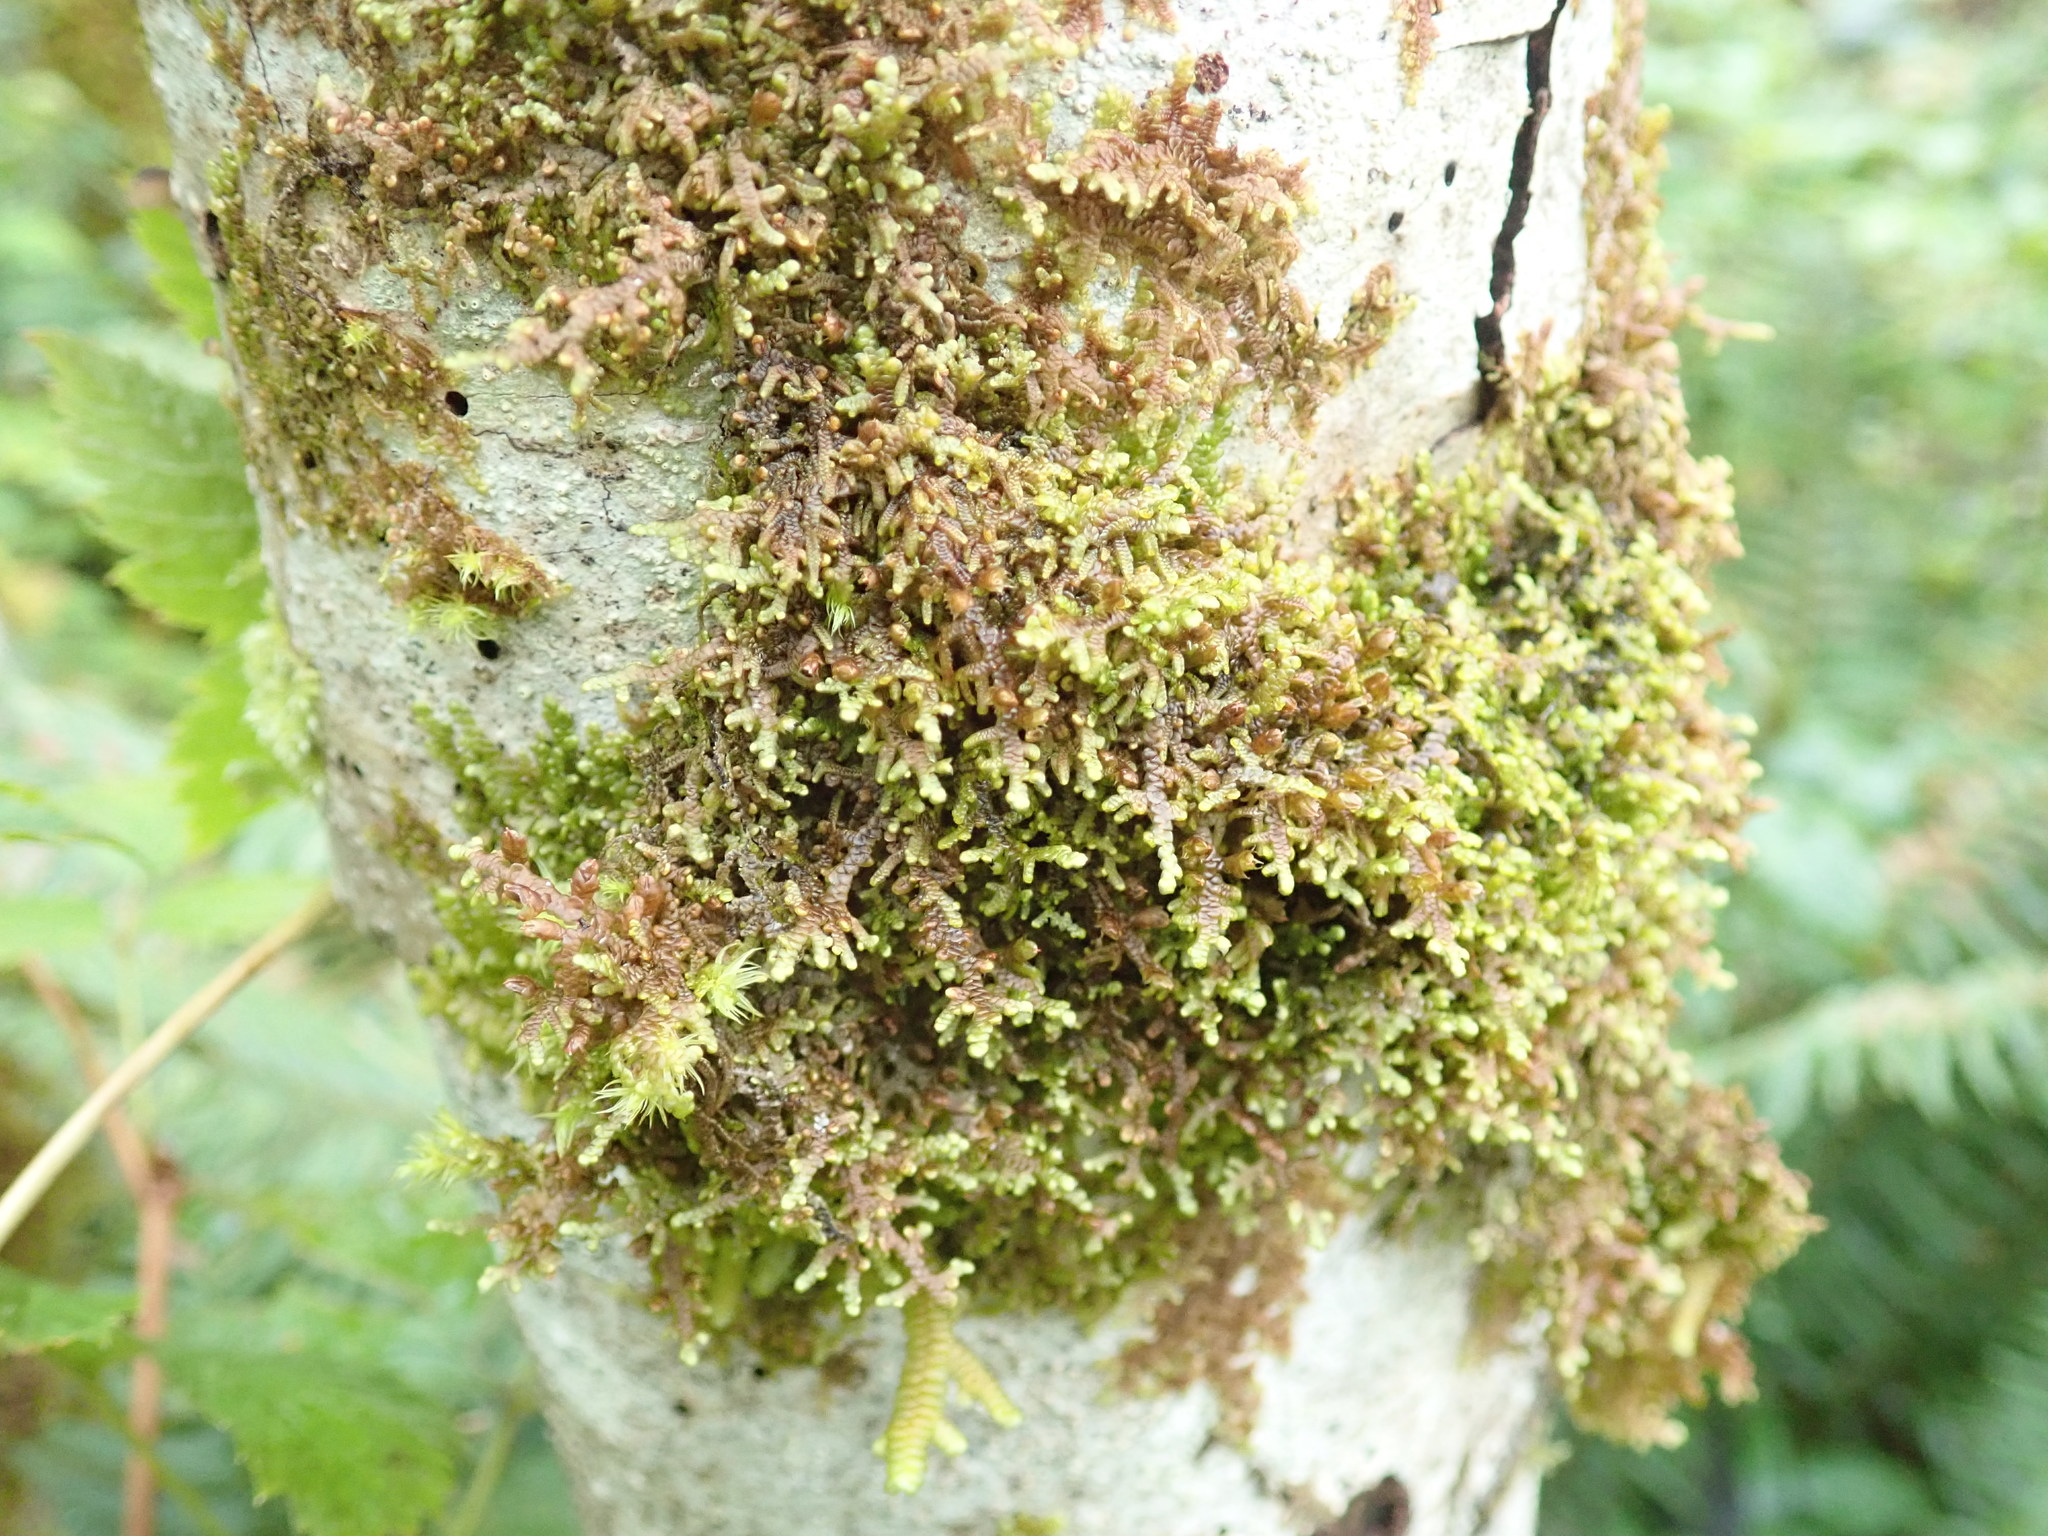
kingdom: Plantae
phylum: Marchantiophyta
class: Jungermanniopsida
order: Porellales
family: Frullaniaceae
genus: Frullania
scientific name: Frullania nisquallensis
